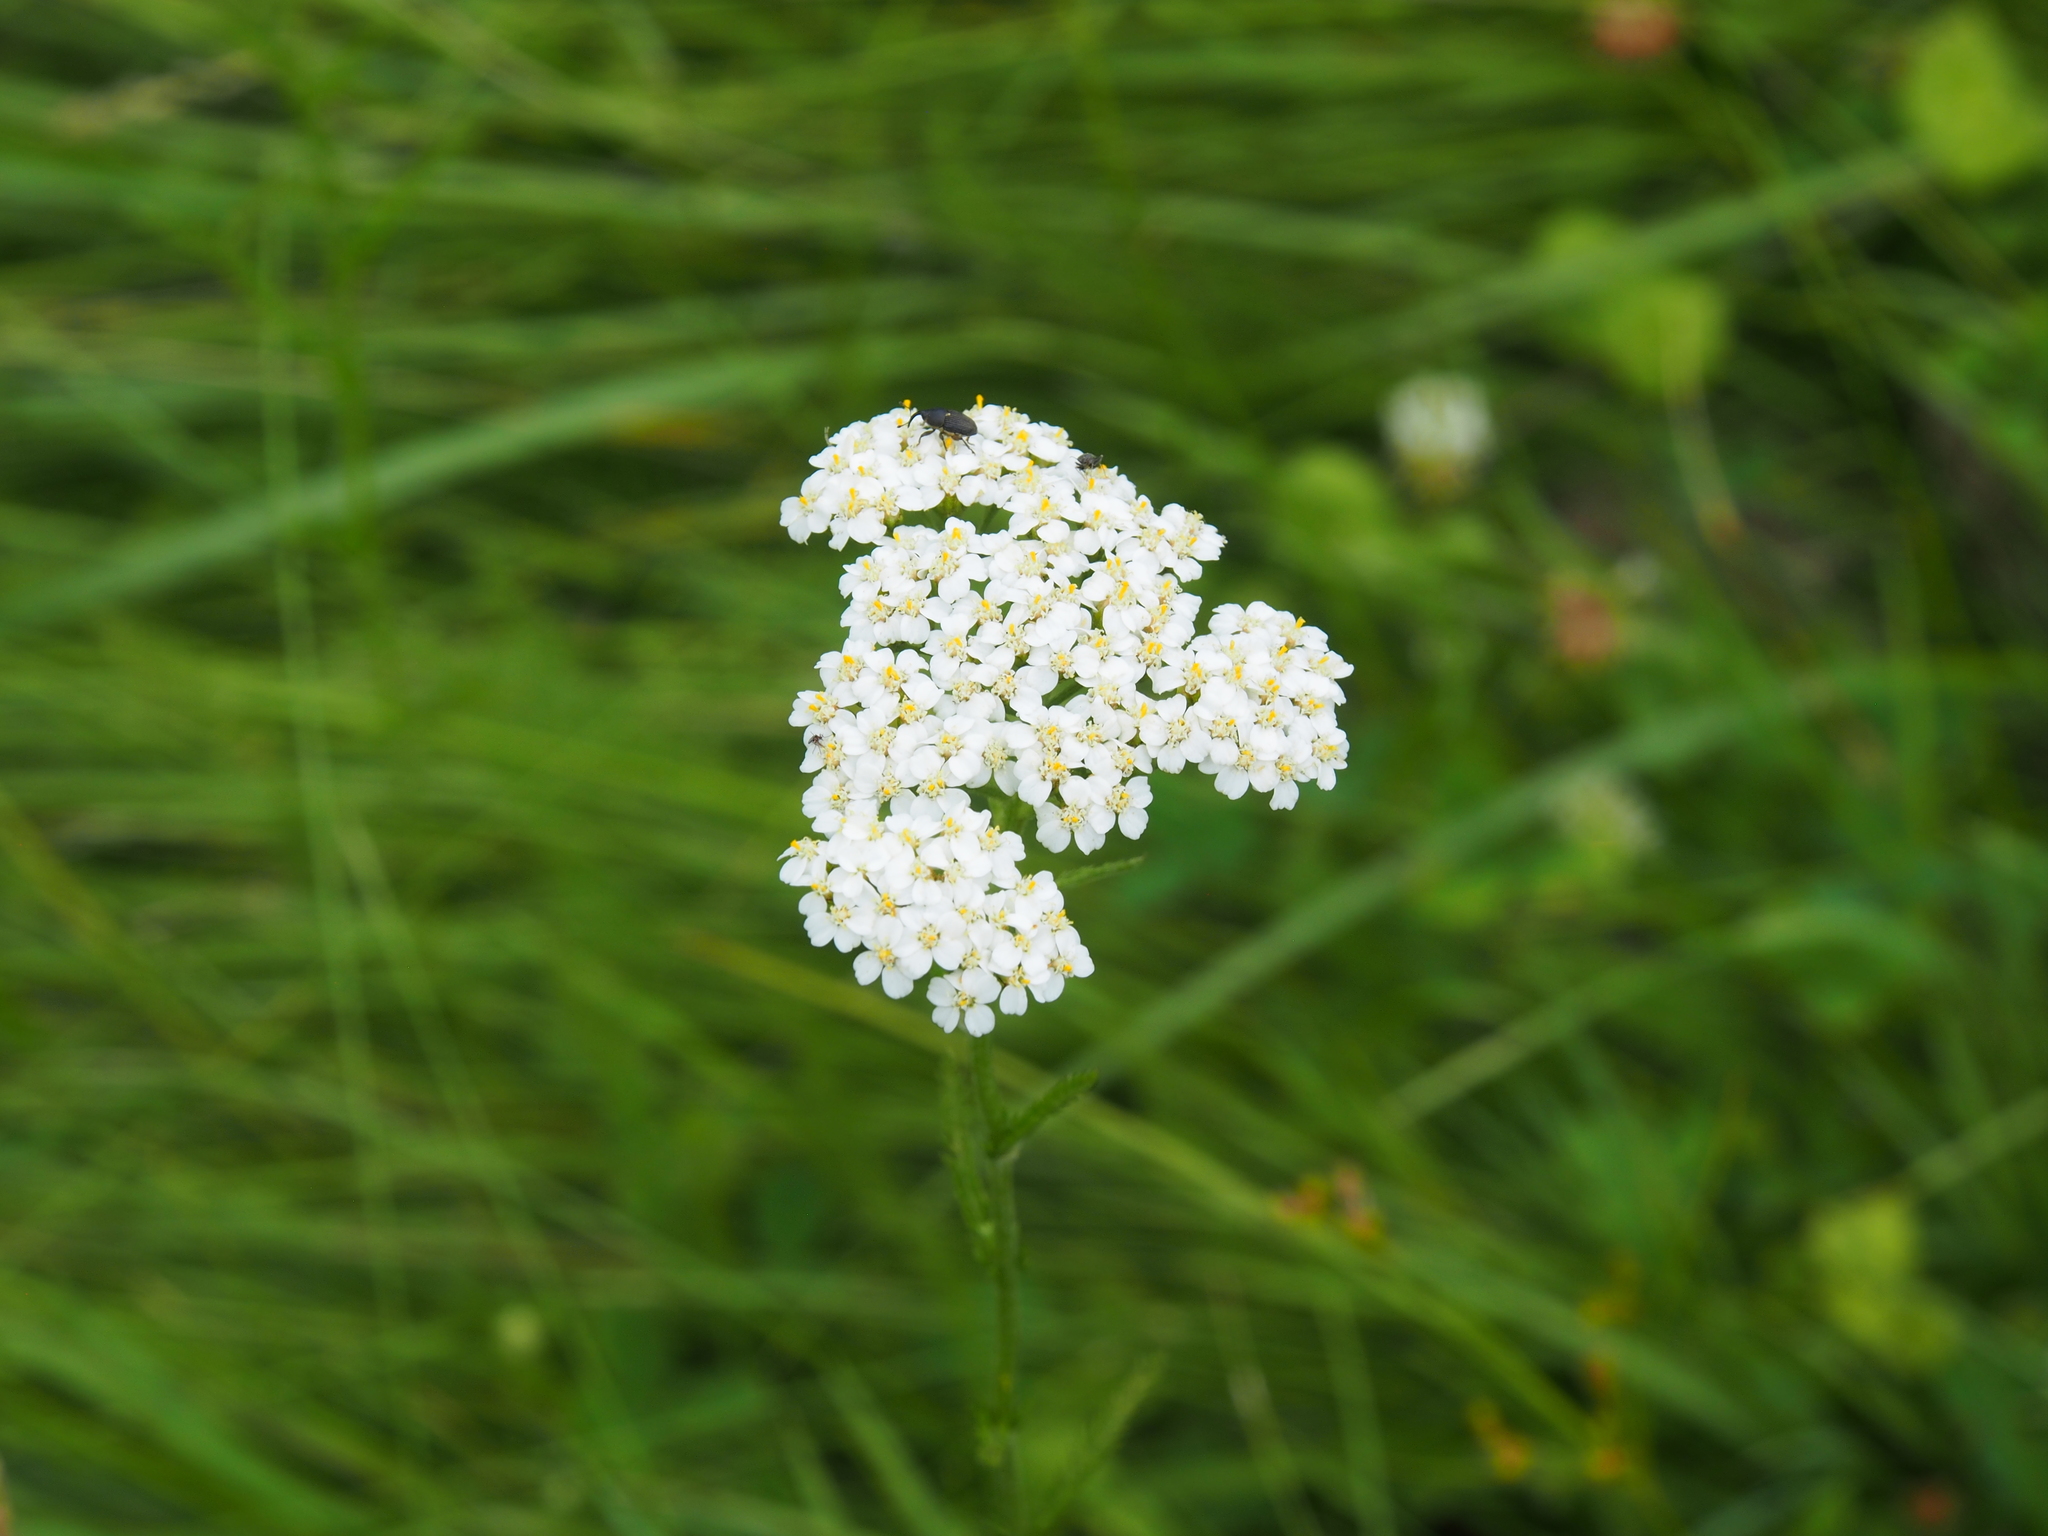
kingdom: Plantae
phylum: Tracheophyta
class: Magnoliopsida
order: Asterales
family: Asteraceae
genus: Achillea
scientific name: Achillea millefolium
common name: Yarrow
